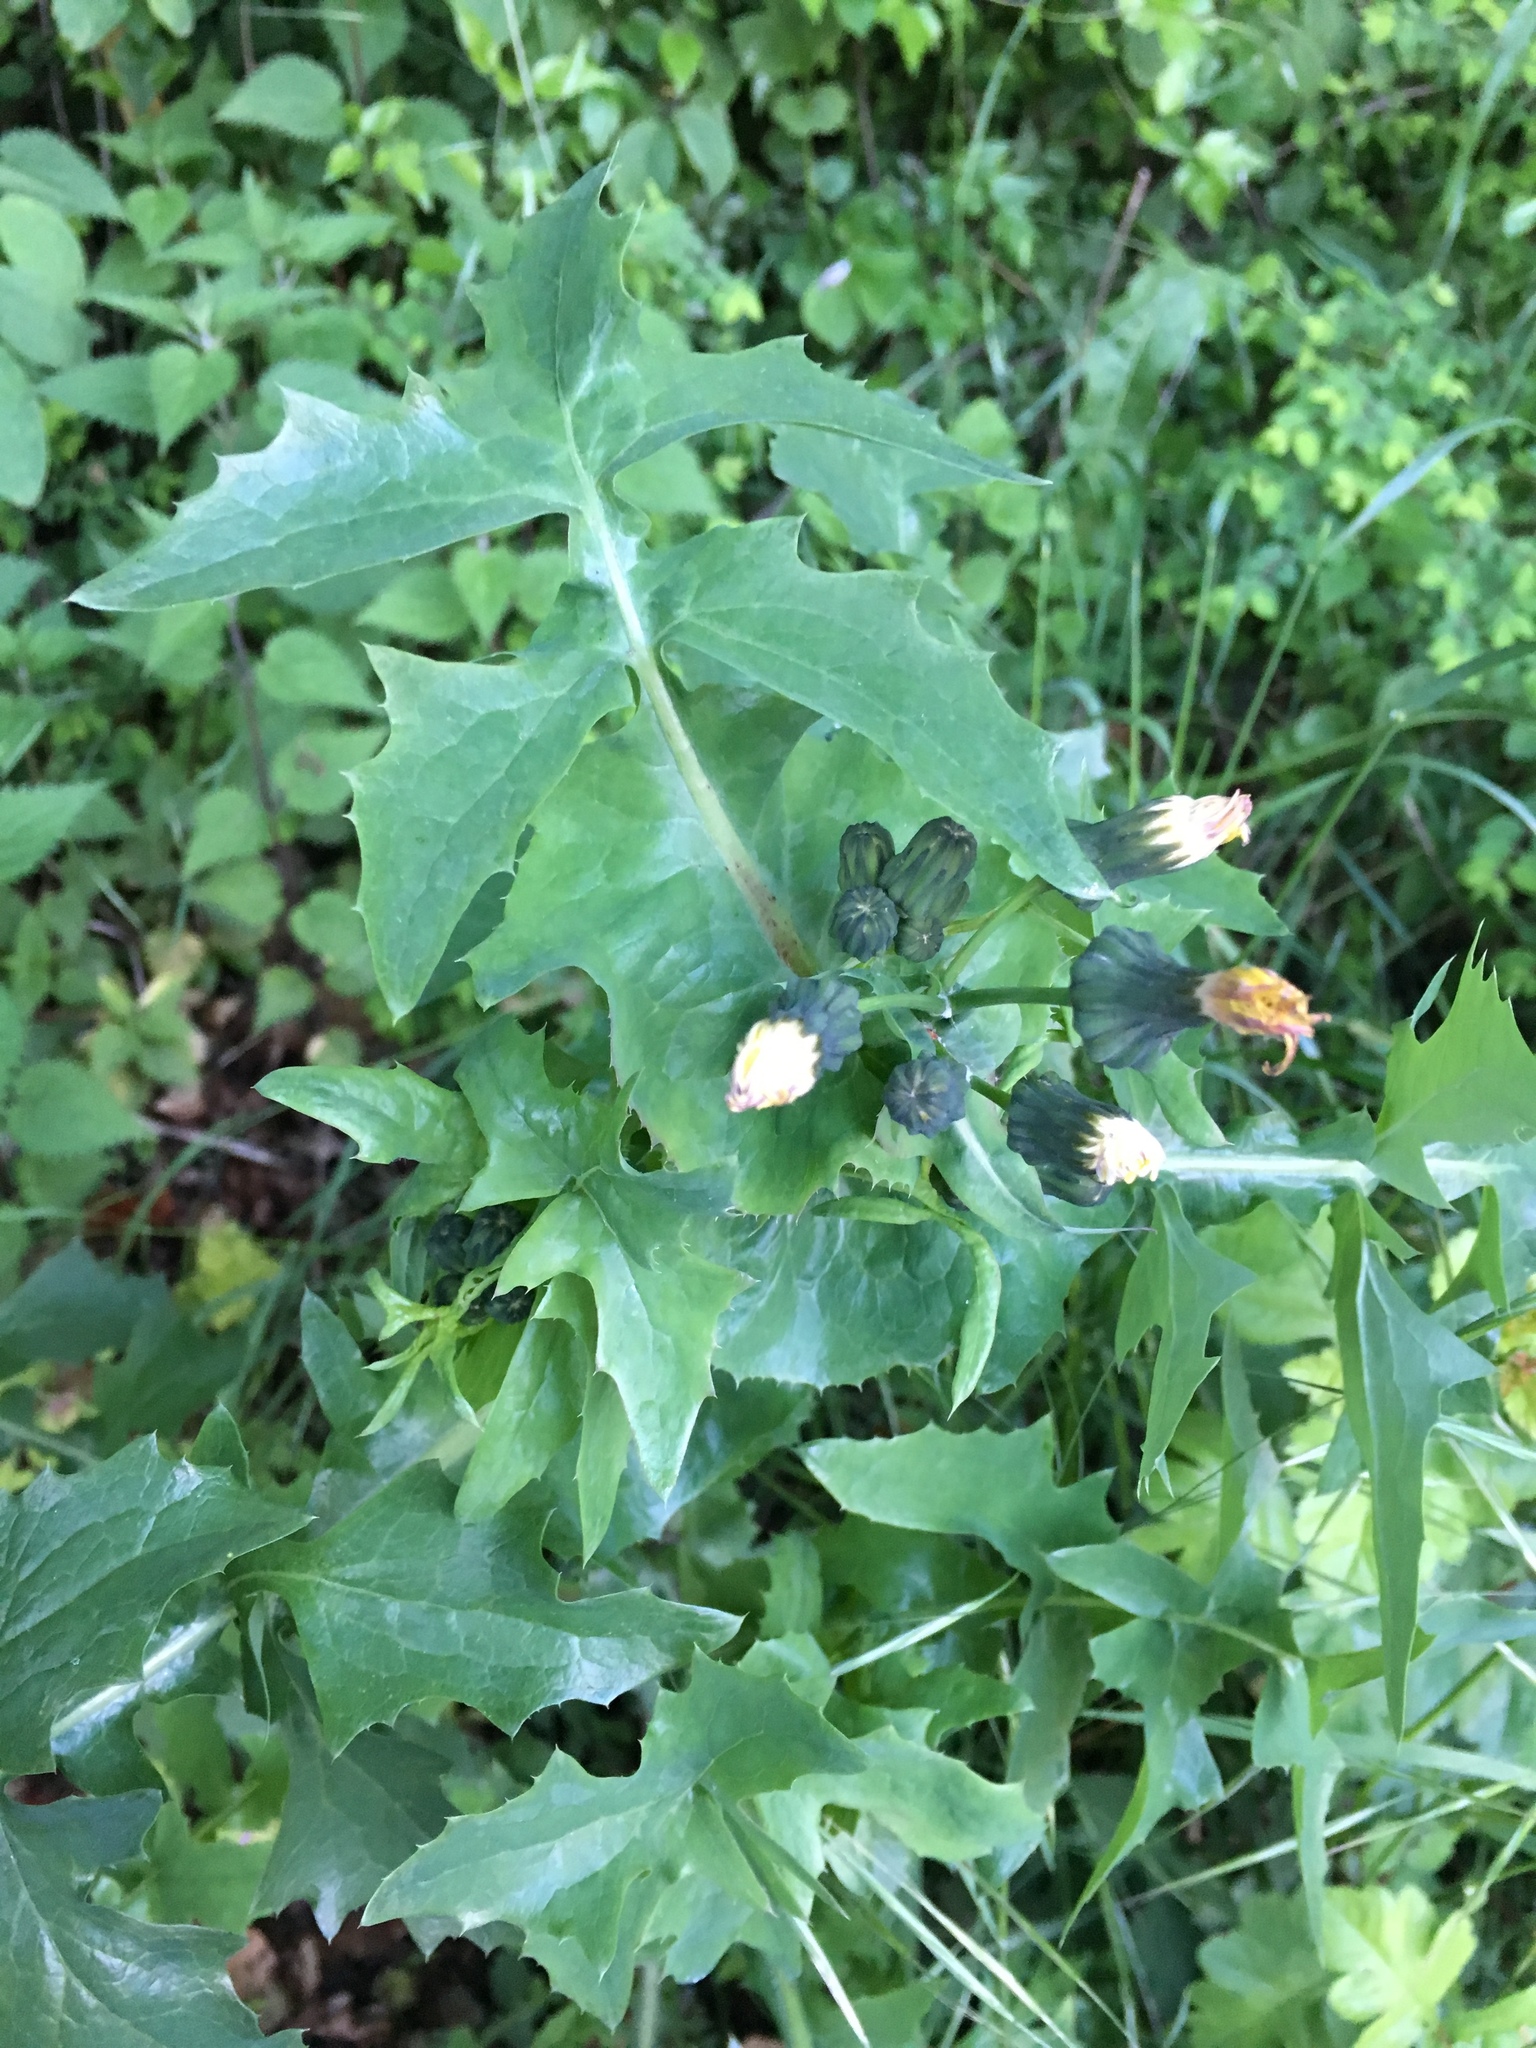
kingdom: Plantae
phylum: Tracheophyta
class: Magnoliopsida
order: Asterales
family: Asteraceae
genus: Sonchus
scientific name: Sonchus oleraceus
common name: Common sowthistle
